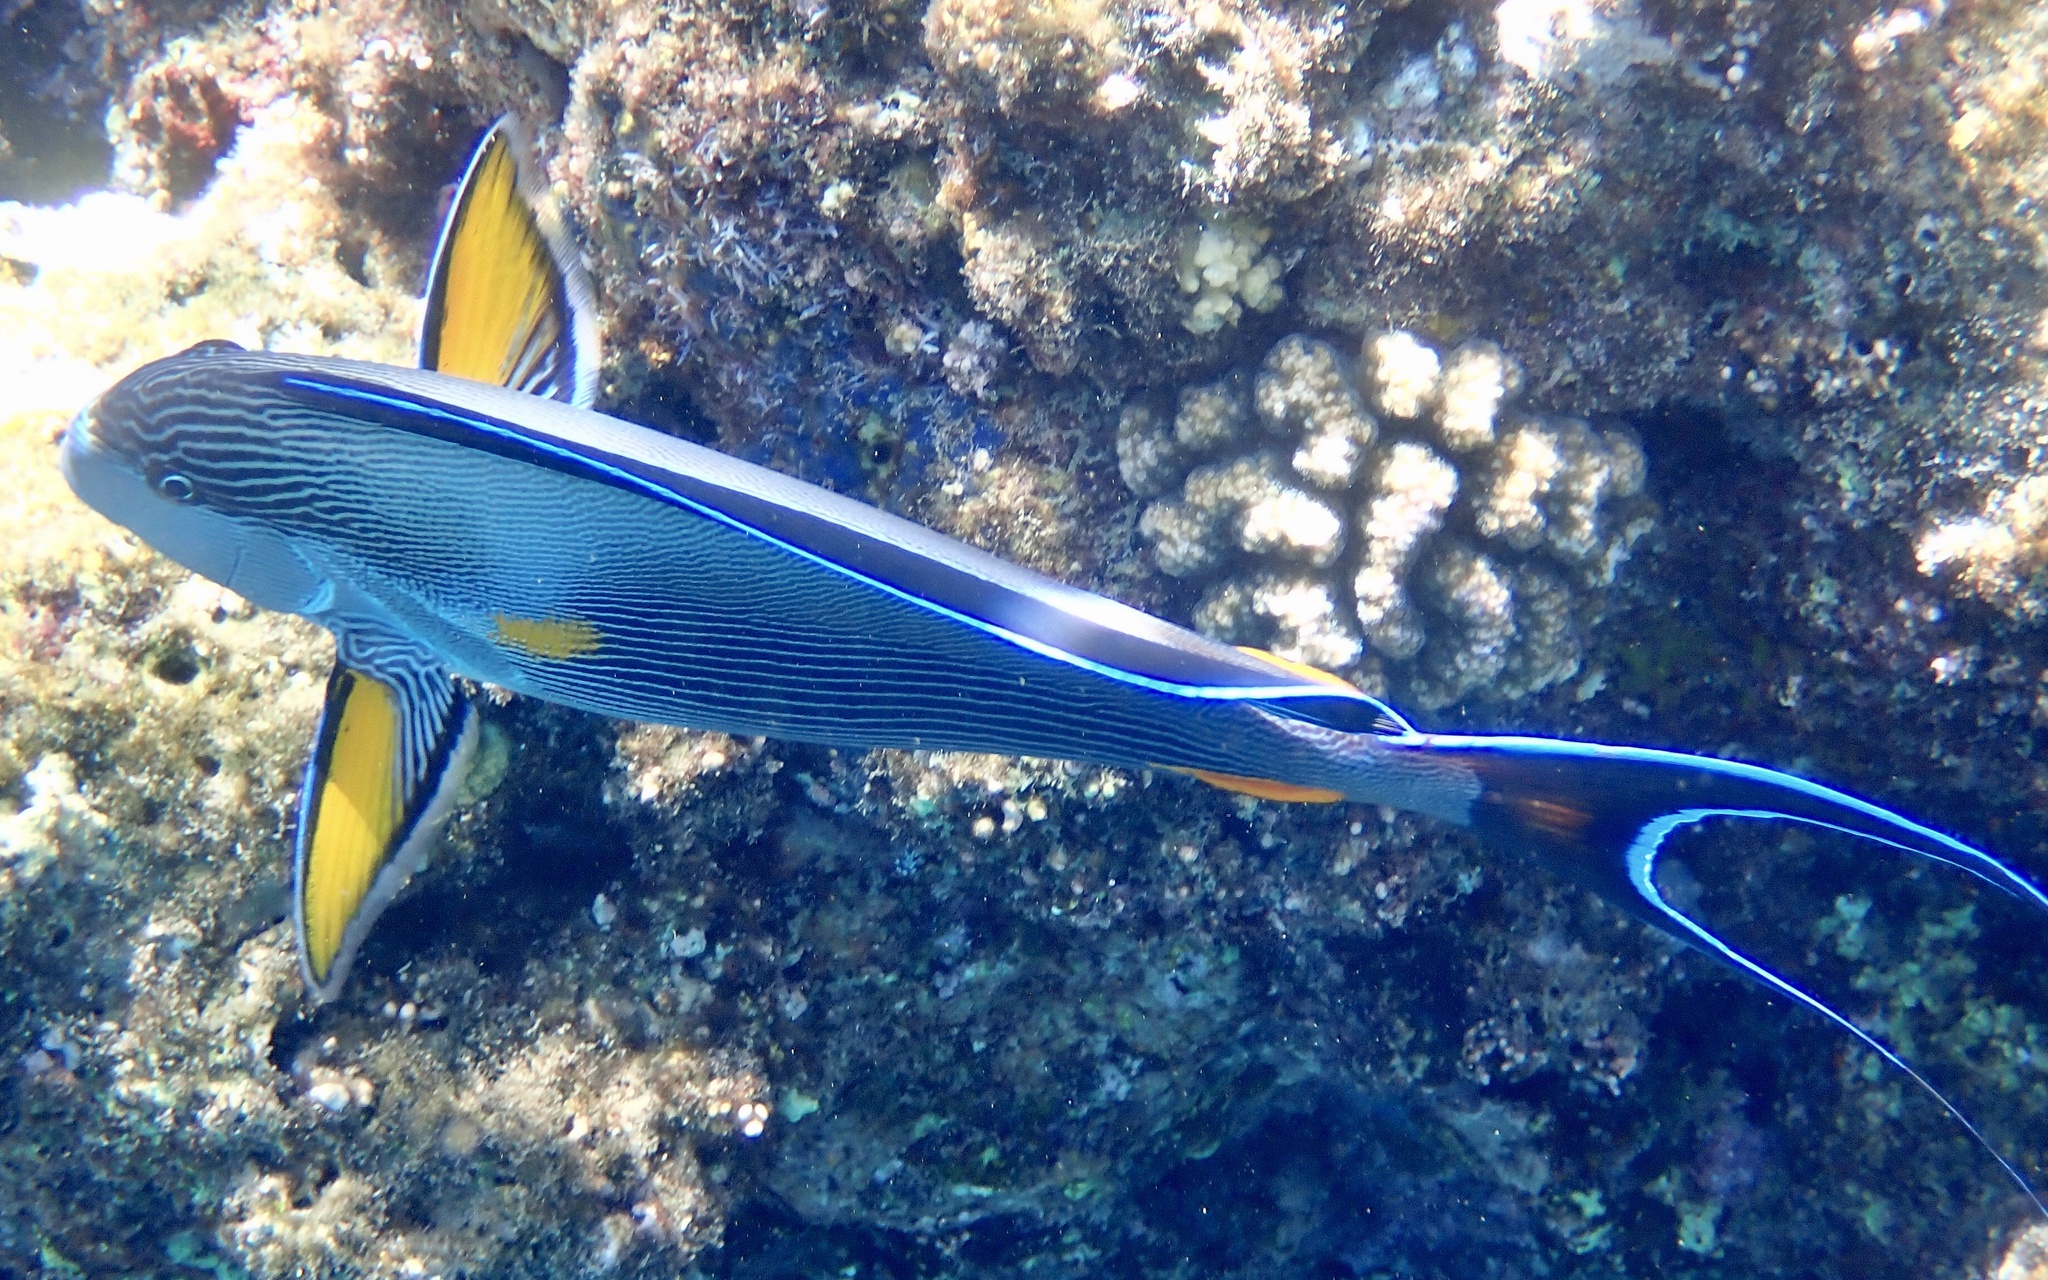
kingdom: Animalia
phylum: Chordata
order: Perciformes
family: Acanthuridae
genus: Acanthurus
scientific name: Acanthurus sohal
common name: Red sea surgeonfish
